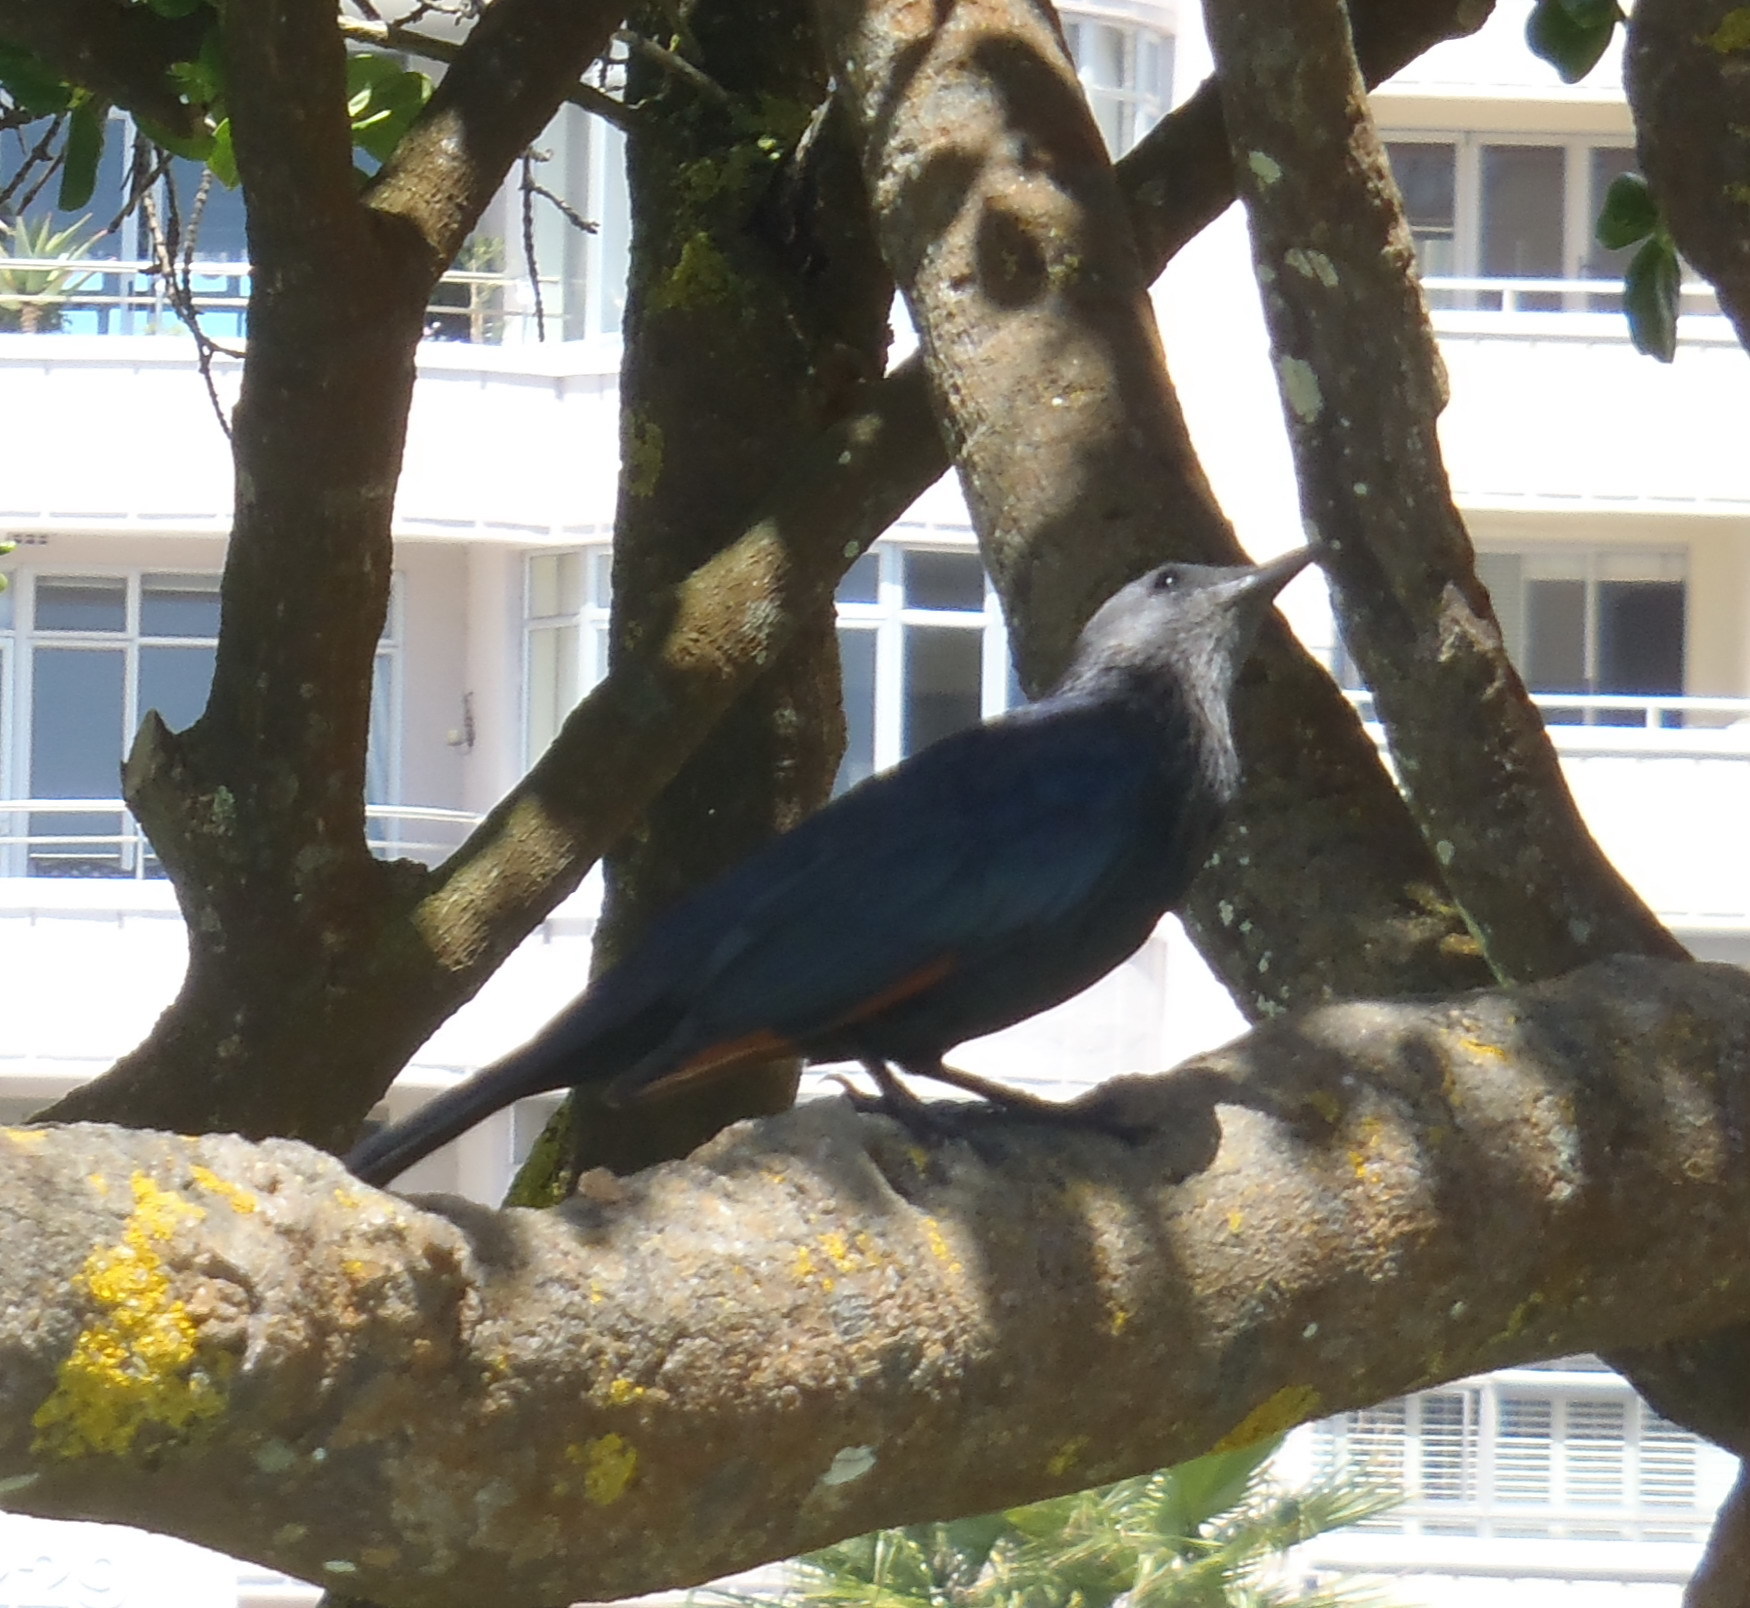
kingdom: Animalia
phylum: Chordata
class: Aves
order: Passeriformes
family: Sturnidae
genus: Onychognathus
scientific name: Onychognathus morio
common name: Red-winged starling
